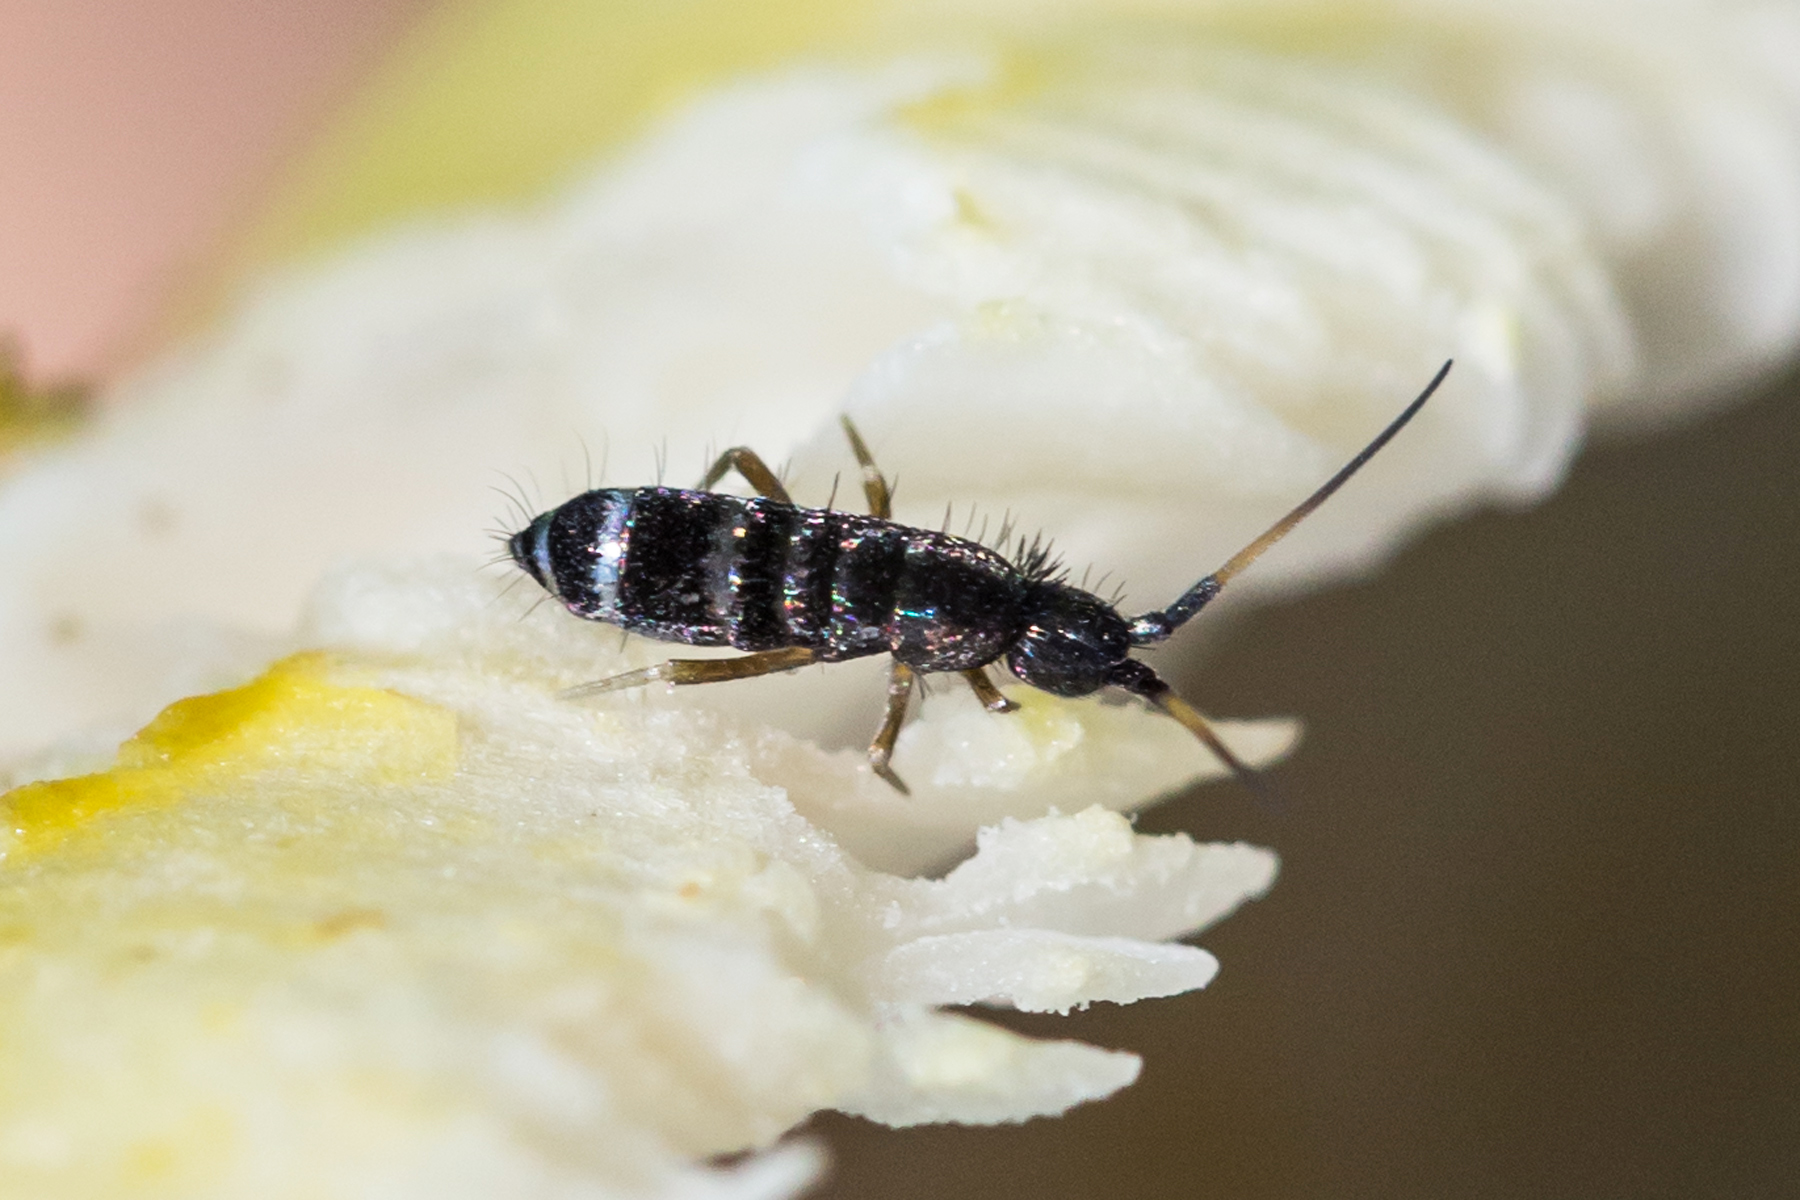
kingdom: Animalia
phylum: Arthropoda
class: Collembola
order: Entomobryomorpha
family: Tomoceridae
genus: Pogonognathellus
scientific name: Pogonognathellus nigritus
